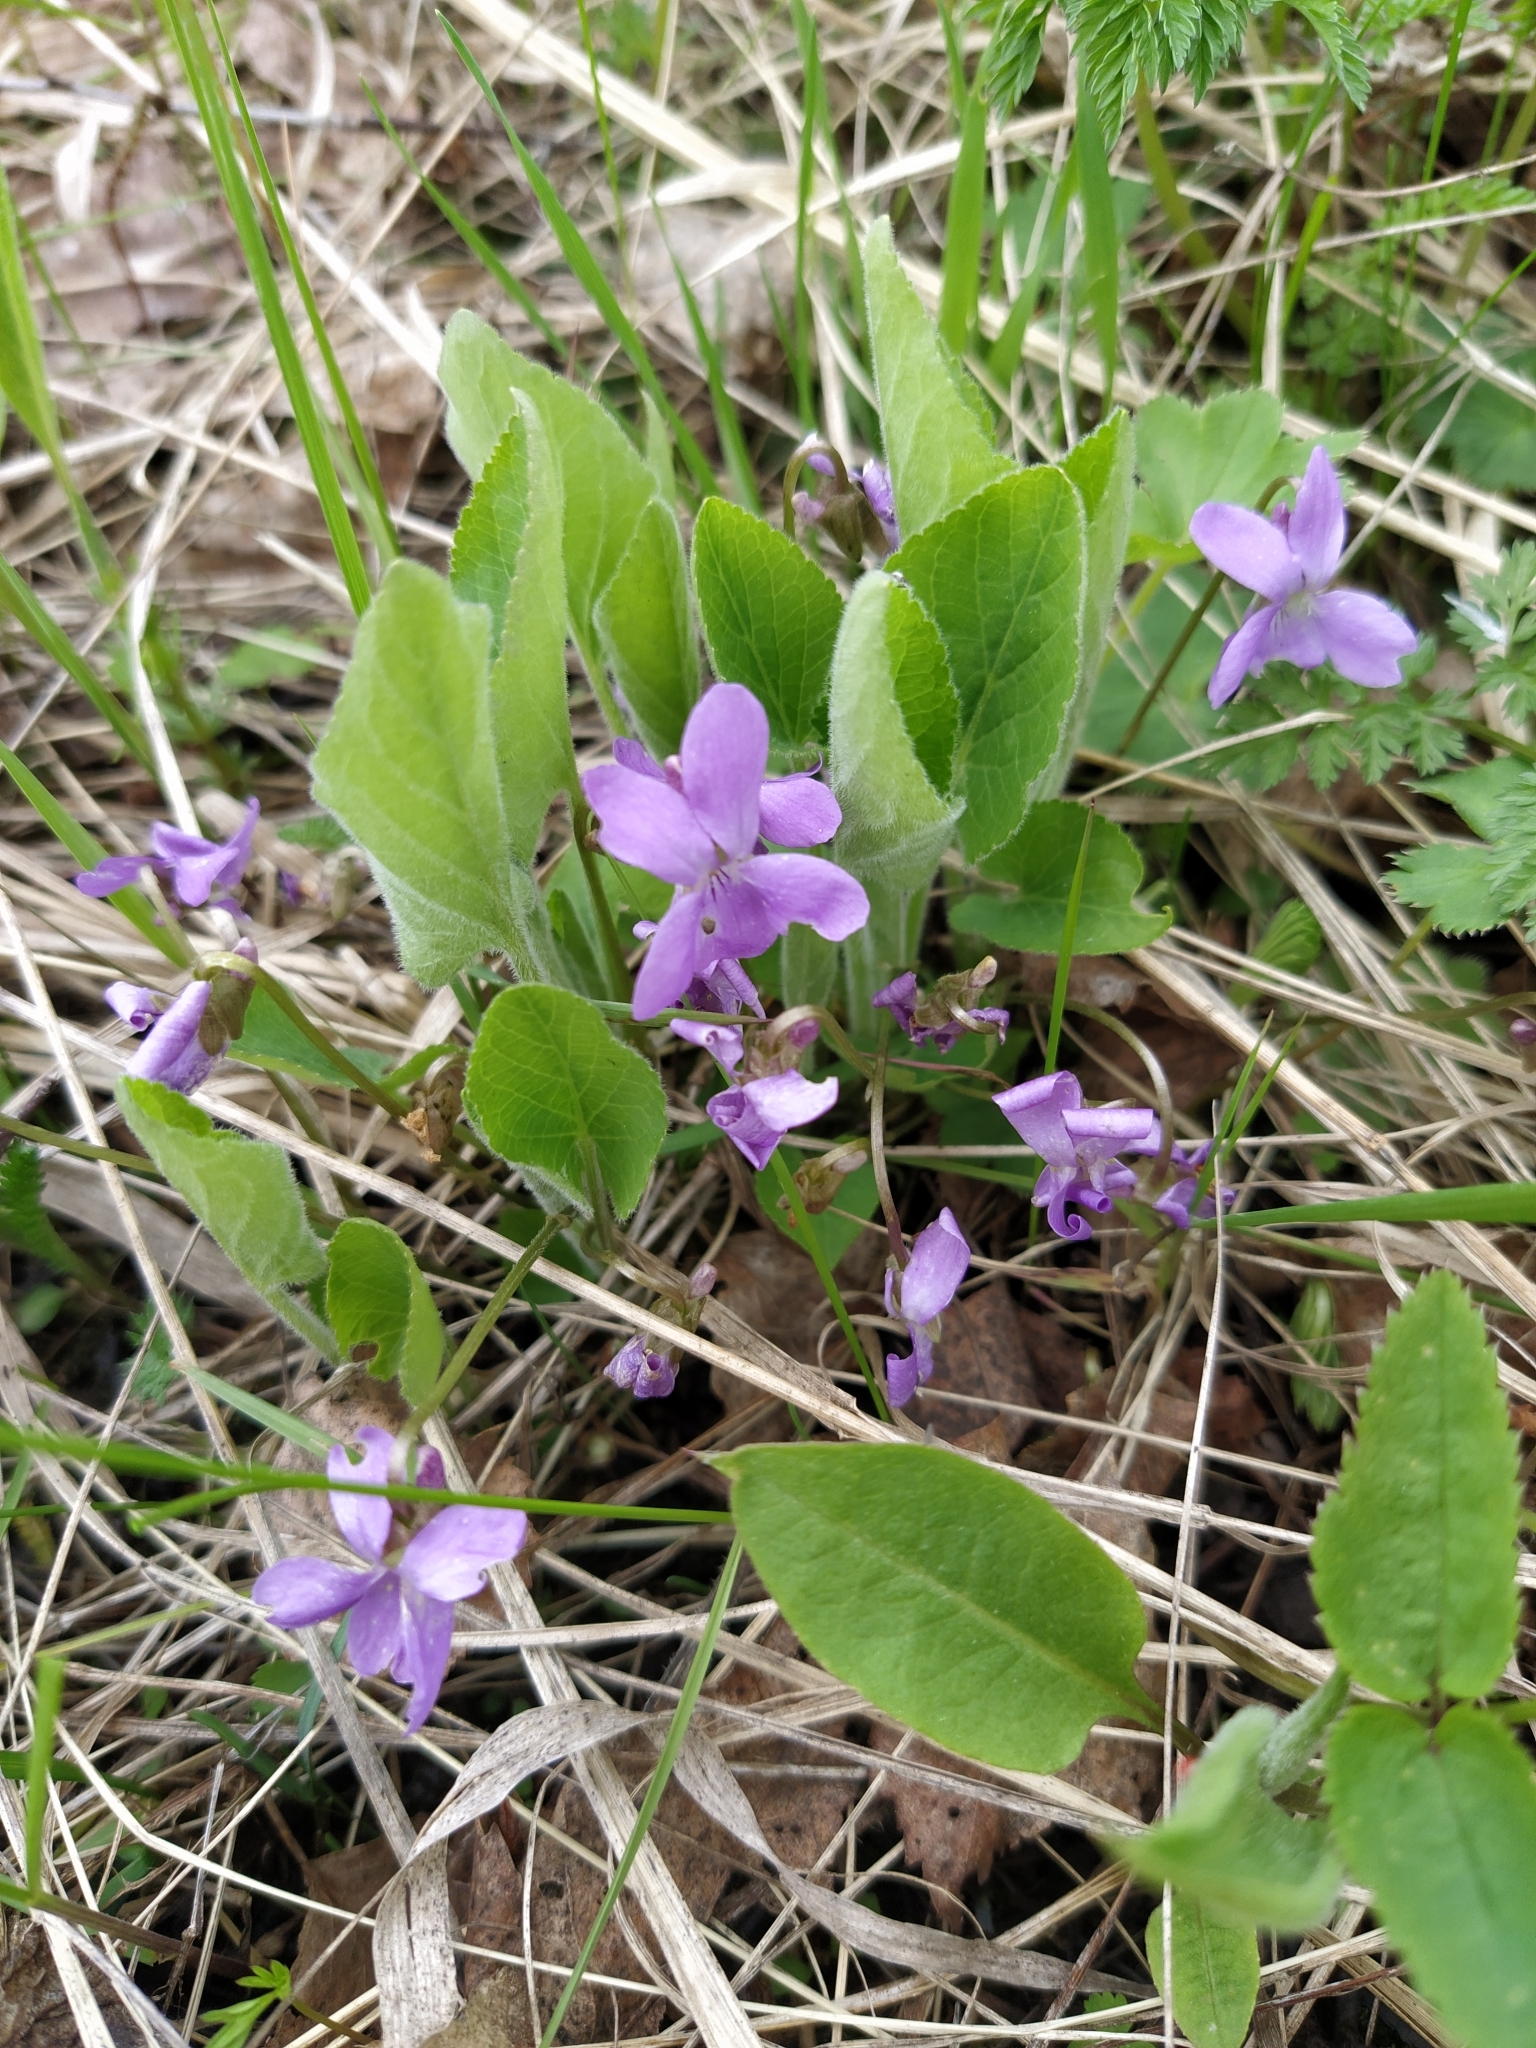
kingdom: Plantae
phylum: Tracheophyta
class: Magnoliopsida
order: Malpighiales
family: Violaceae
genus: Viola
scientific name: Viola hirta
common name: Hairy violet
